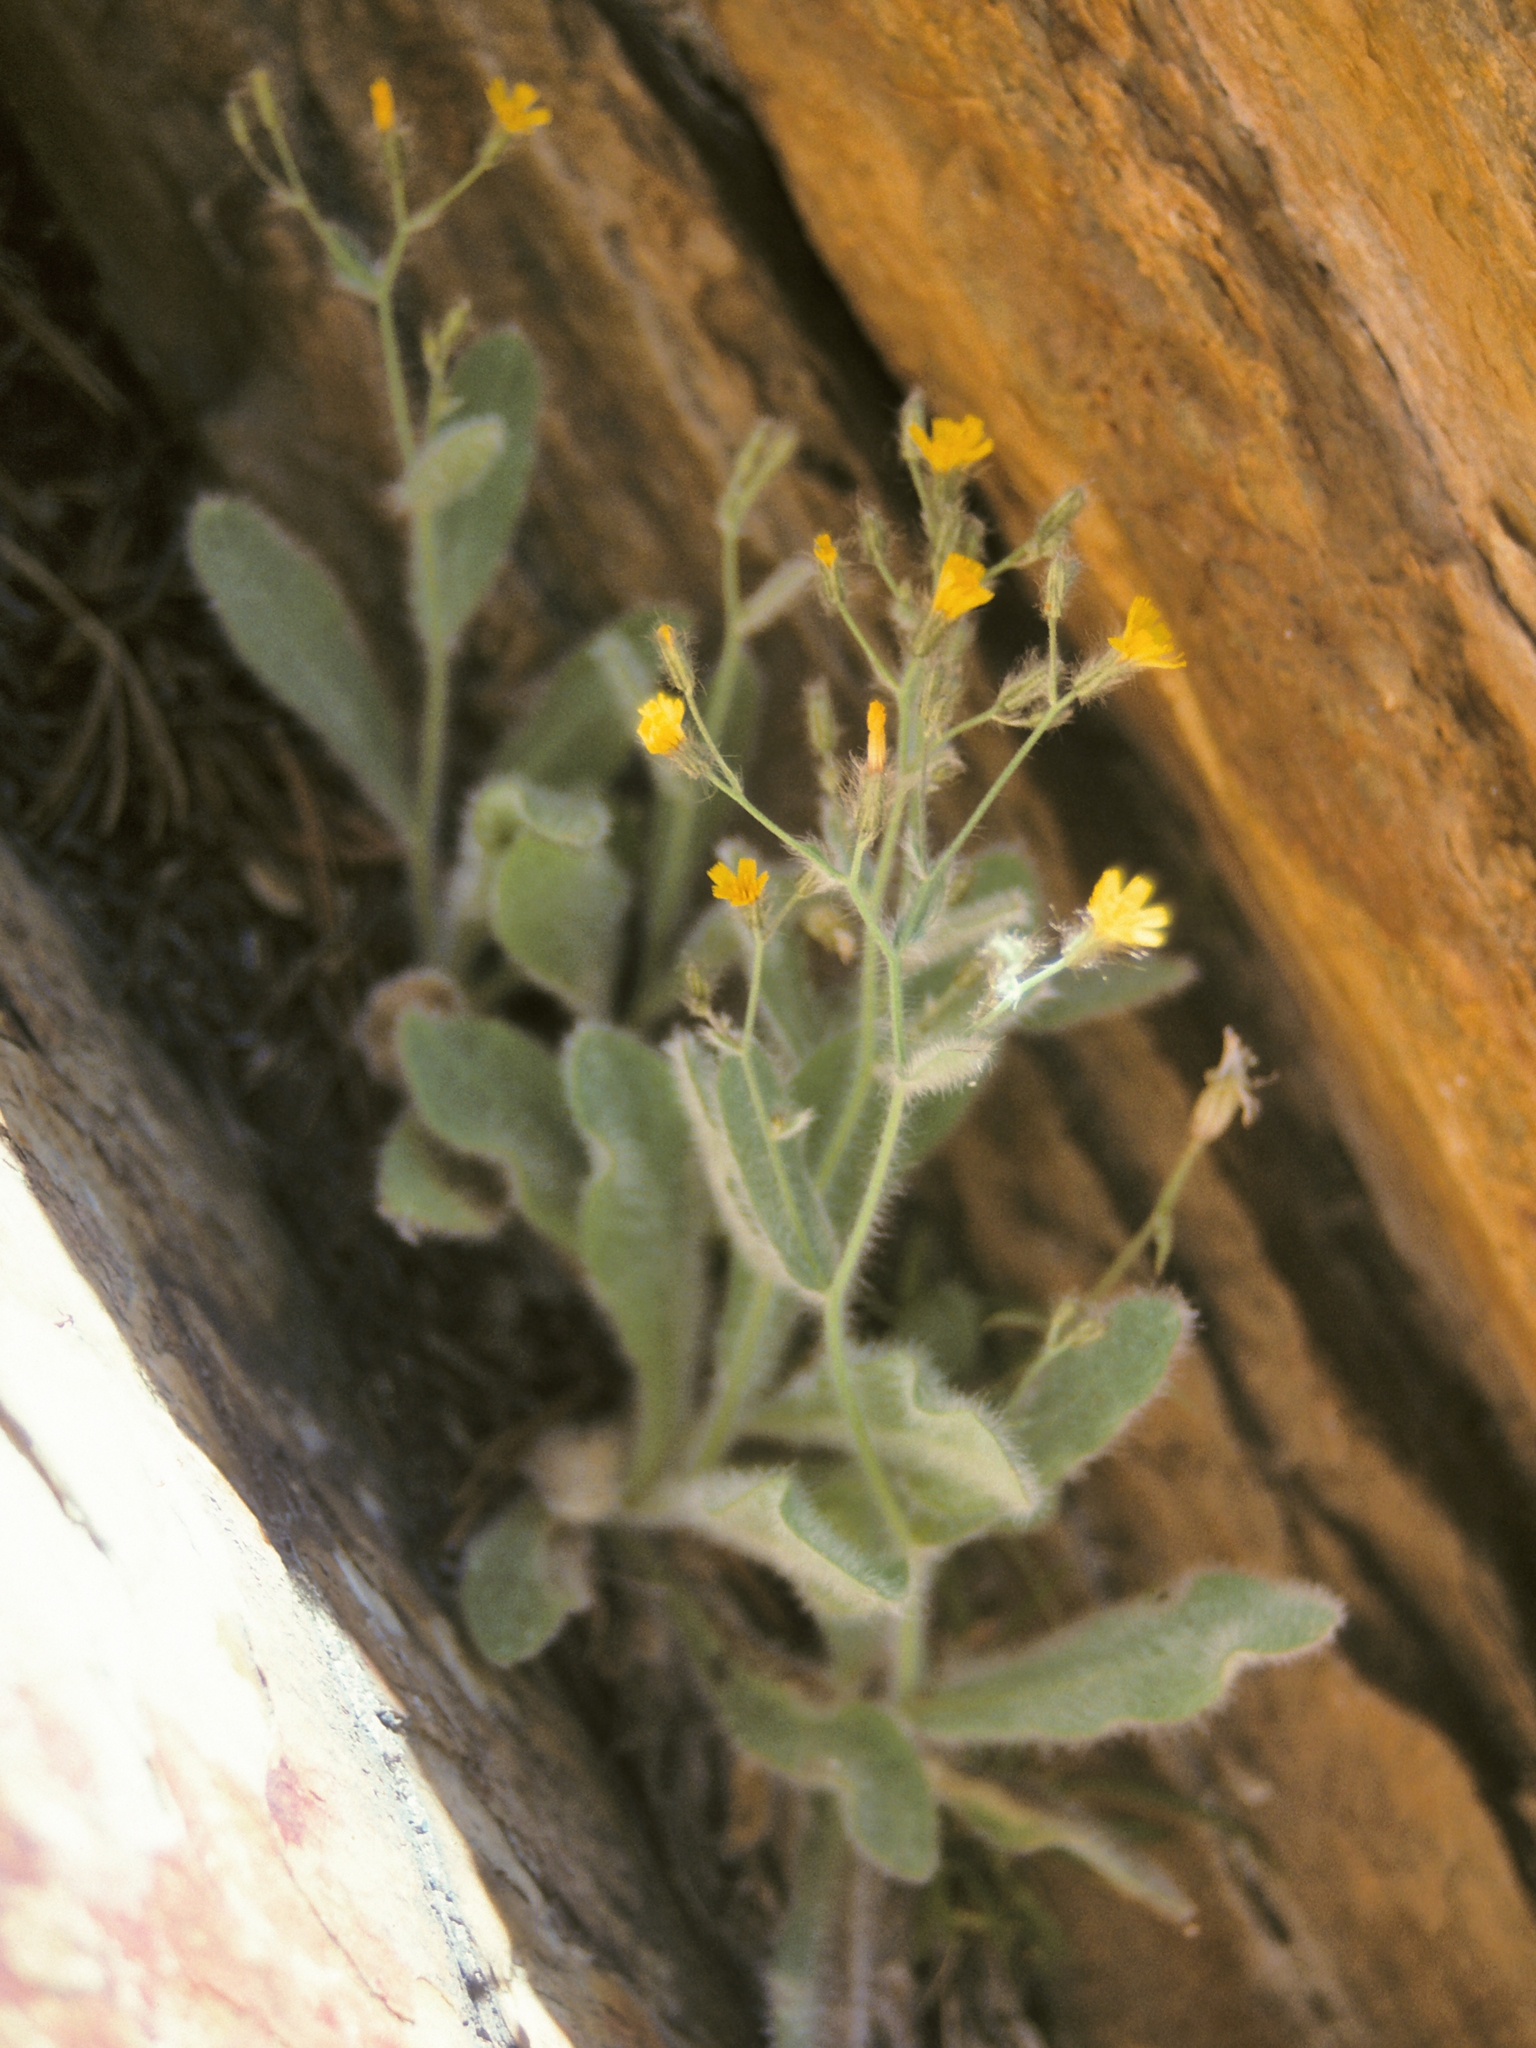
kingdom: Plantae
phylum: Tracheophyta
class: Magnoliopsida
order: Asterales
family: Asteraceae
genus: Hieracium
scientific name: Hieracium horridum
